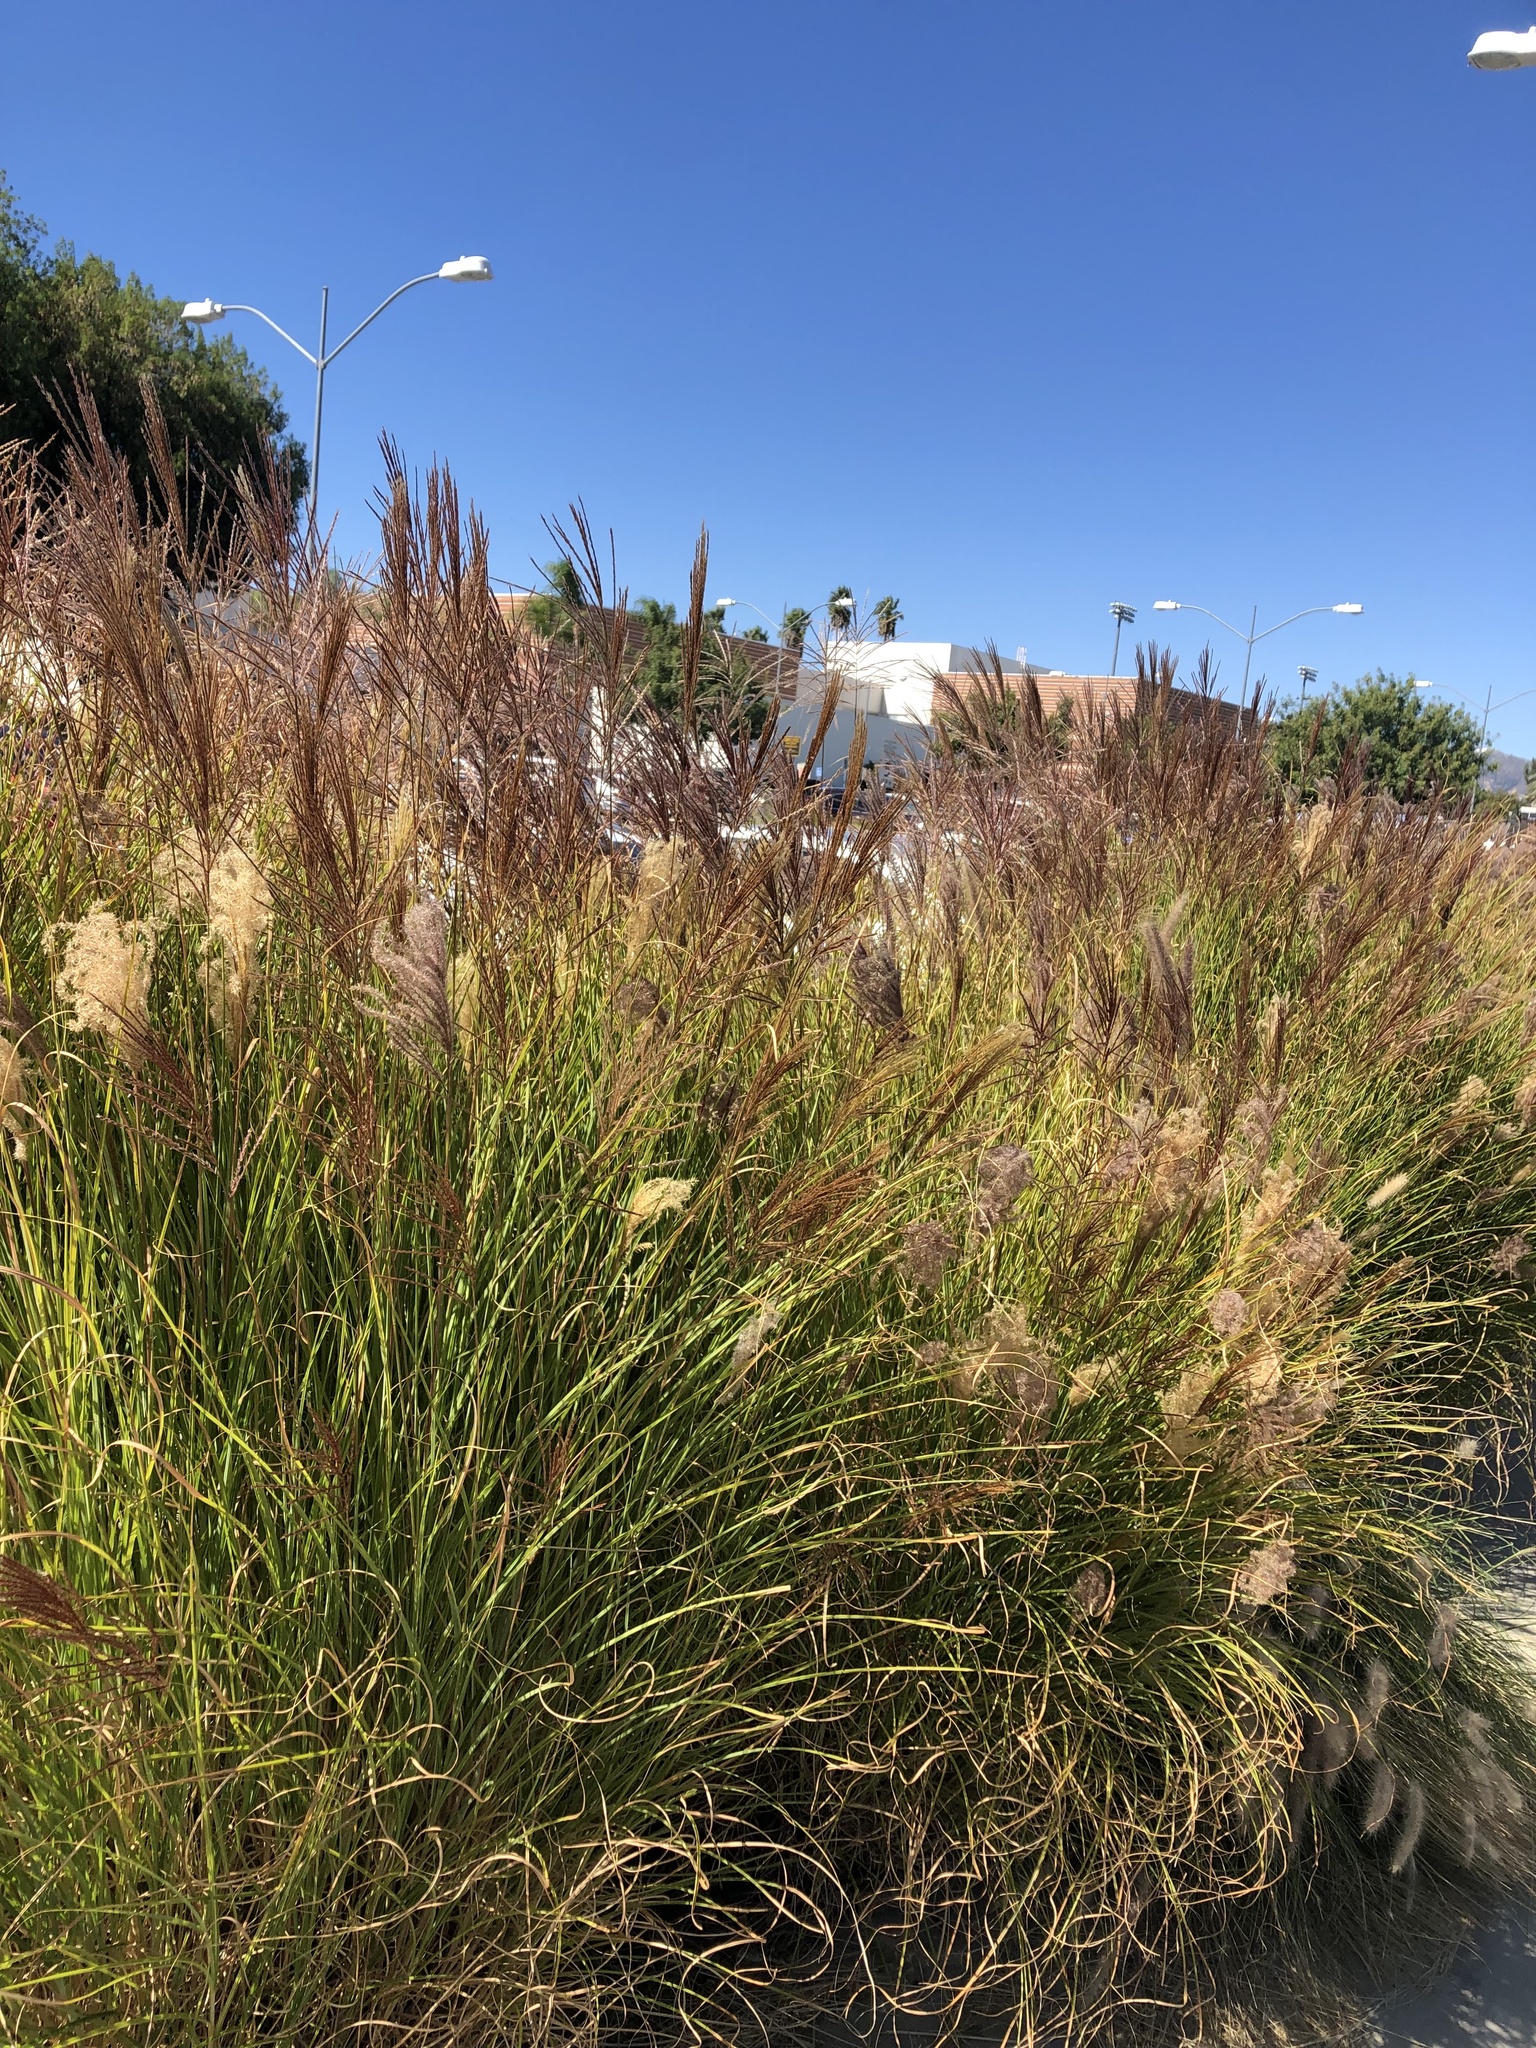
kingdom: Plantae
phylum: Tracheophyta
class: Liliopsida
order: Poales
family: Poaceae
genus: Cenchrus
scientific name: Cenchrus setaceus
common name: Crimson fountaingrass
